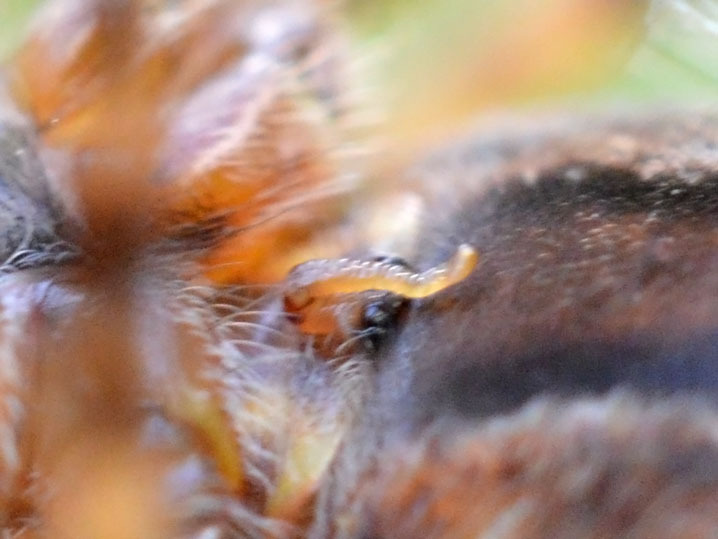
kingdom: Animalia
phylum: Arthropoda
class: Arachnida
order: Araneae
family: Araneidae
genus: Araneus
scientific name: Araneus diadematus
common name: Cross orbweaver
